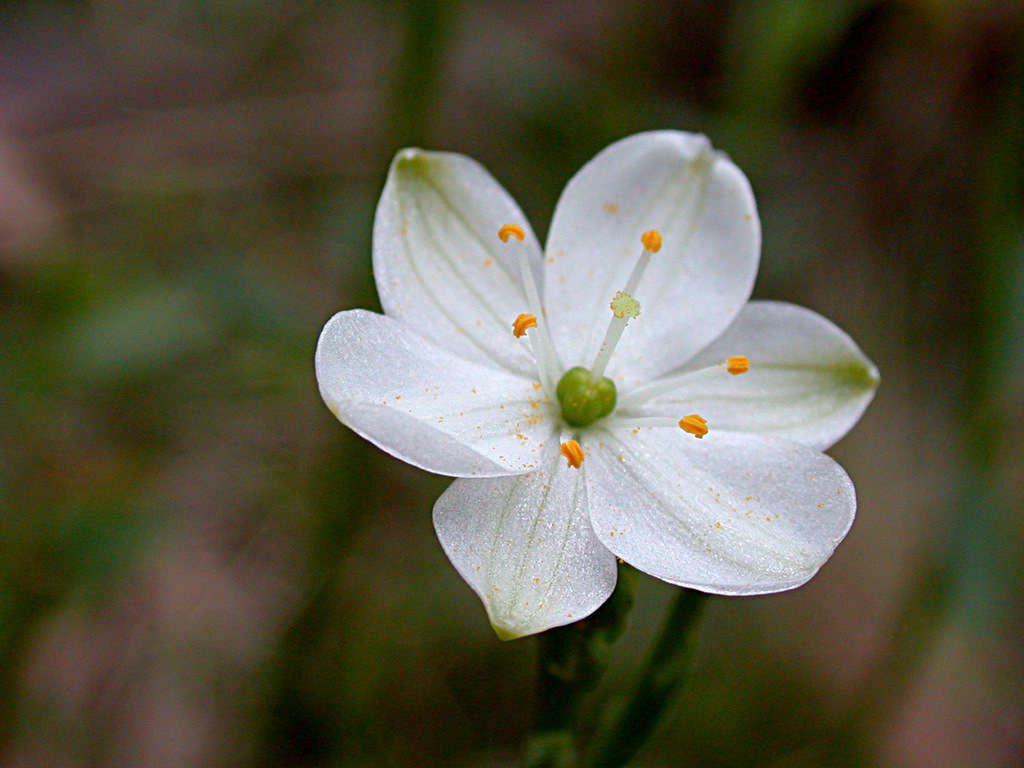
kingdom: Plantae
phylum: Tracheophyta
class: Liliopsida
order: Asparagales
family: Asphodelaceae
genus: Chamaescilla
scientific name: Chamaescilla corymbosa
